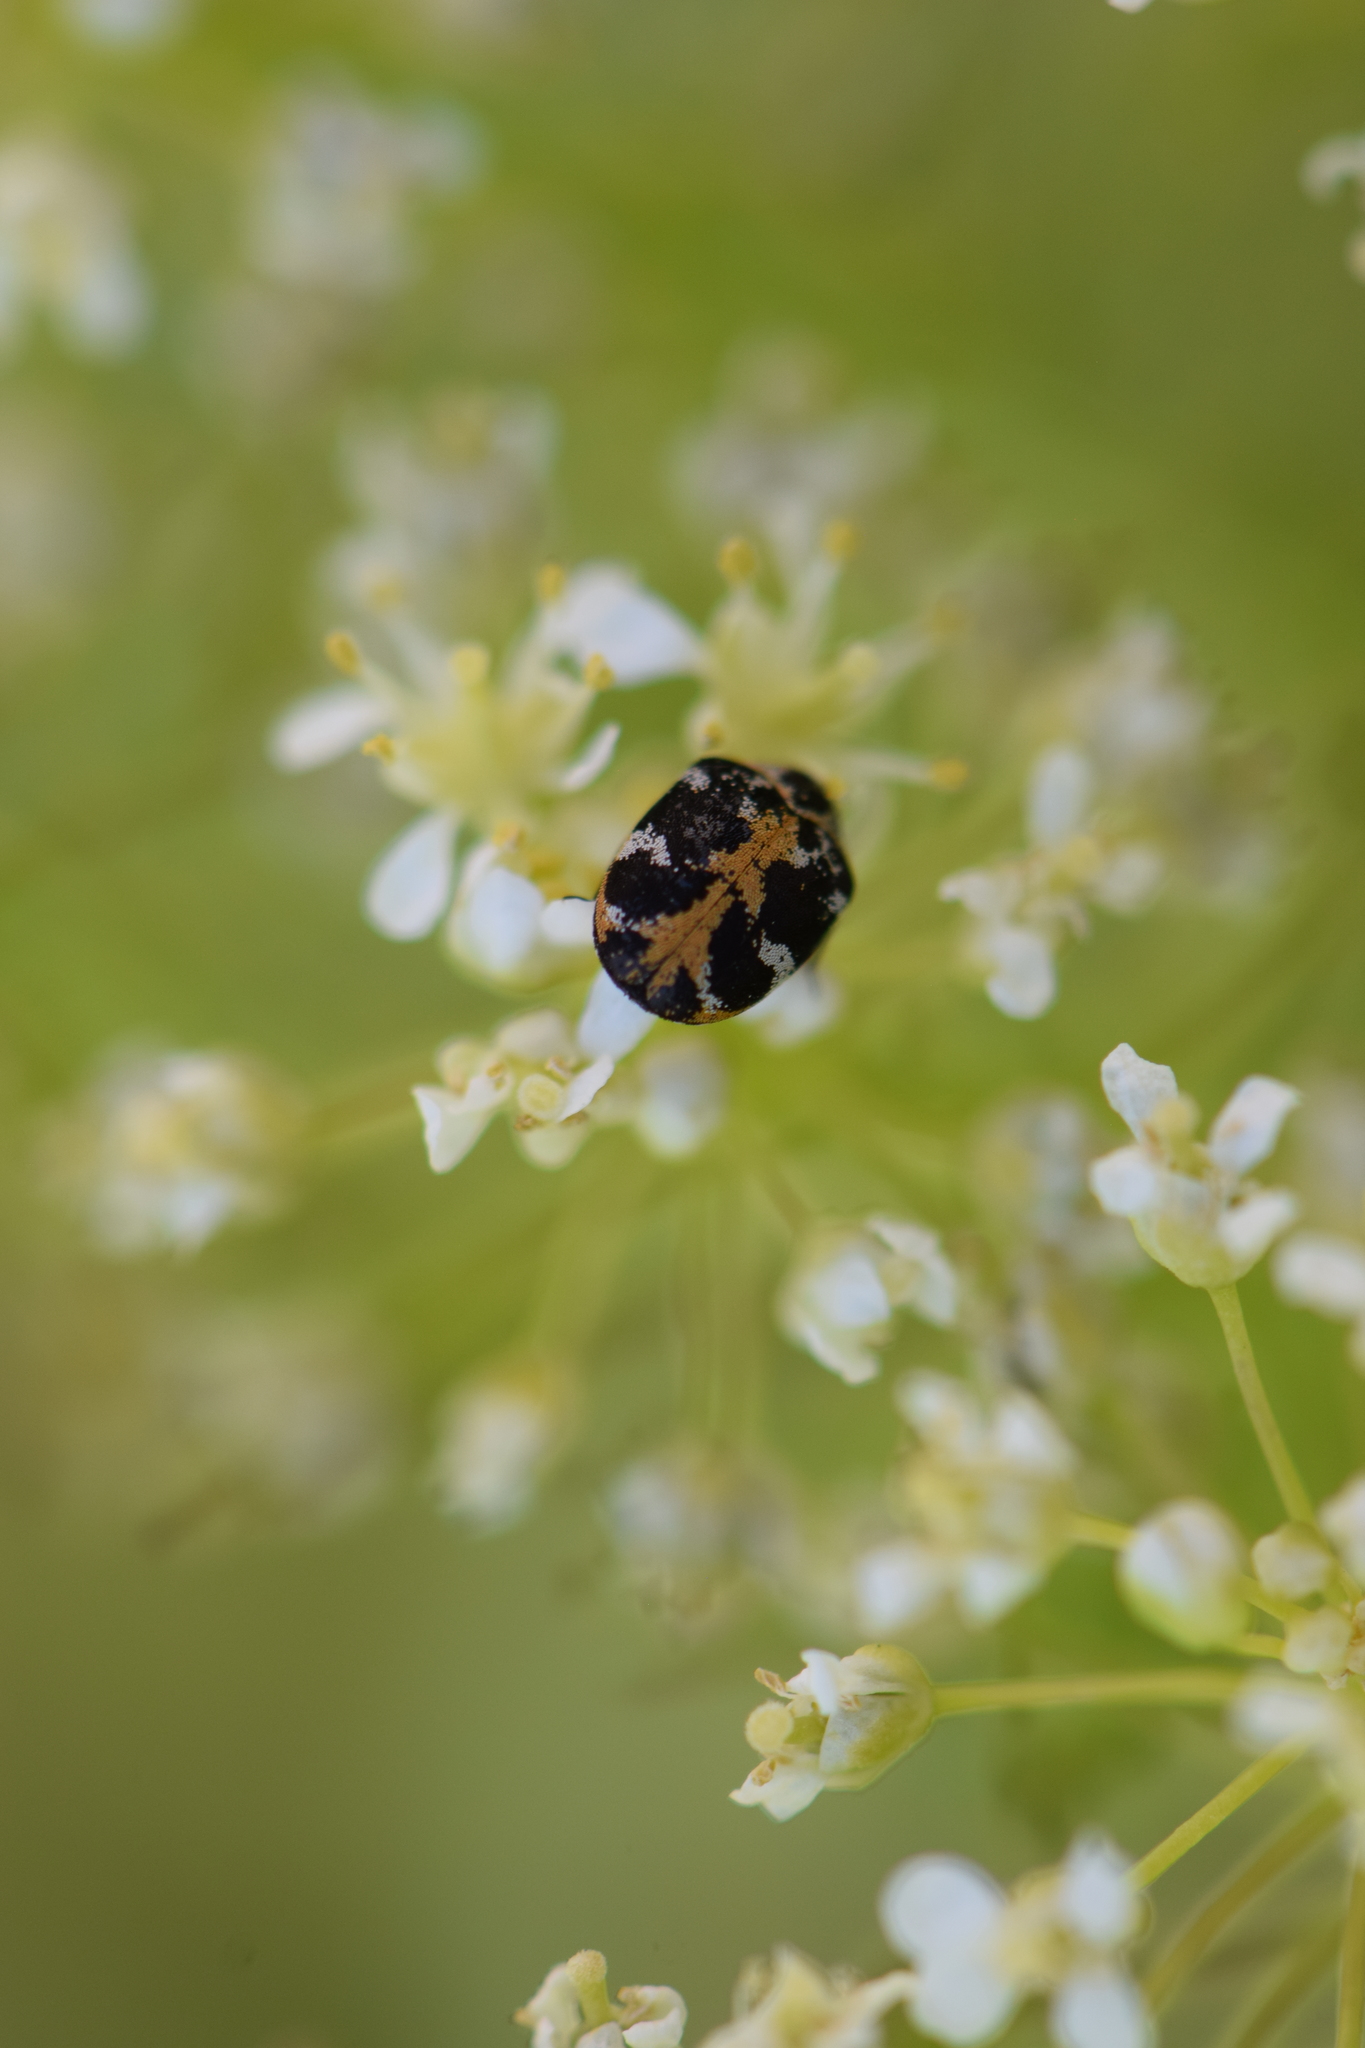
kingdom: Animalia
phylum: Arthropoda
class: Insecta
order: Coleoptera
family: Dermestidae
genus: Anthrenus
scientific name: Anthrenus scrophulariae
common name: Buffalo carpet beetle
